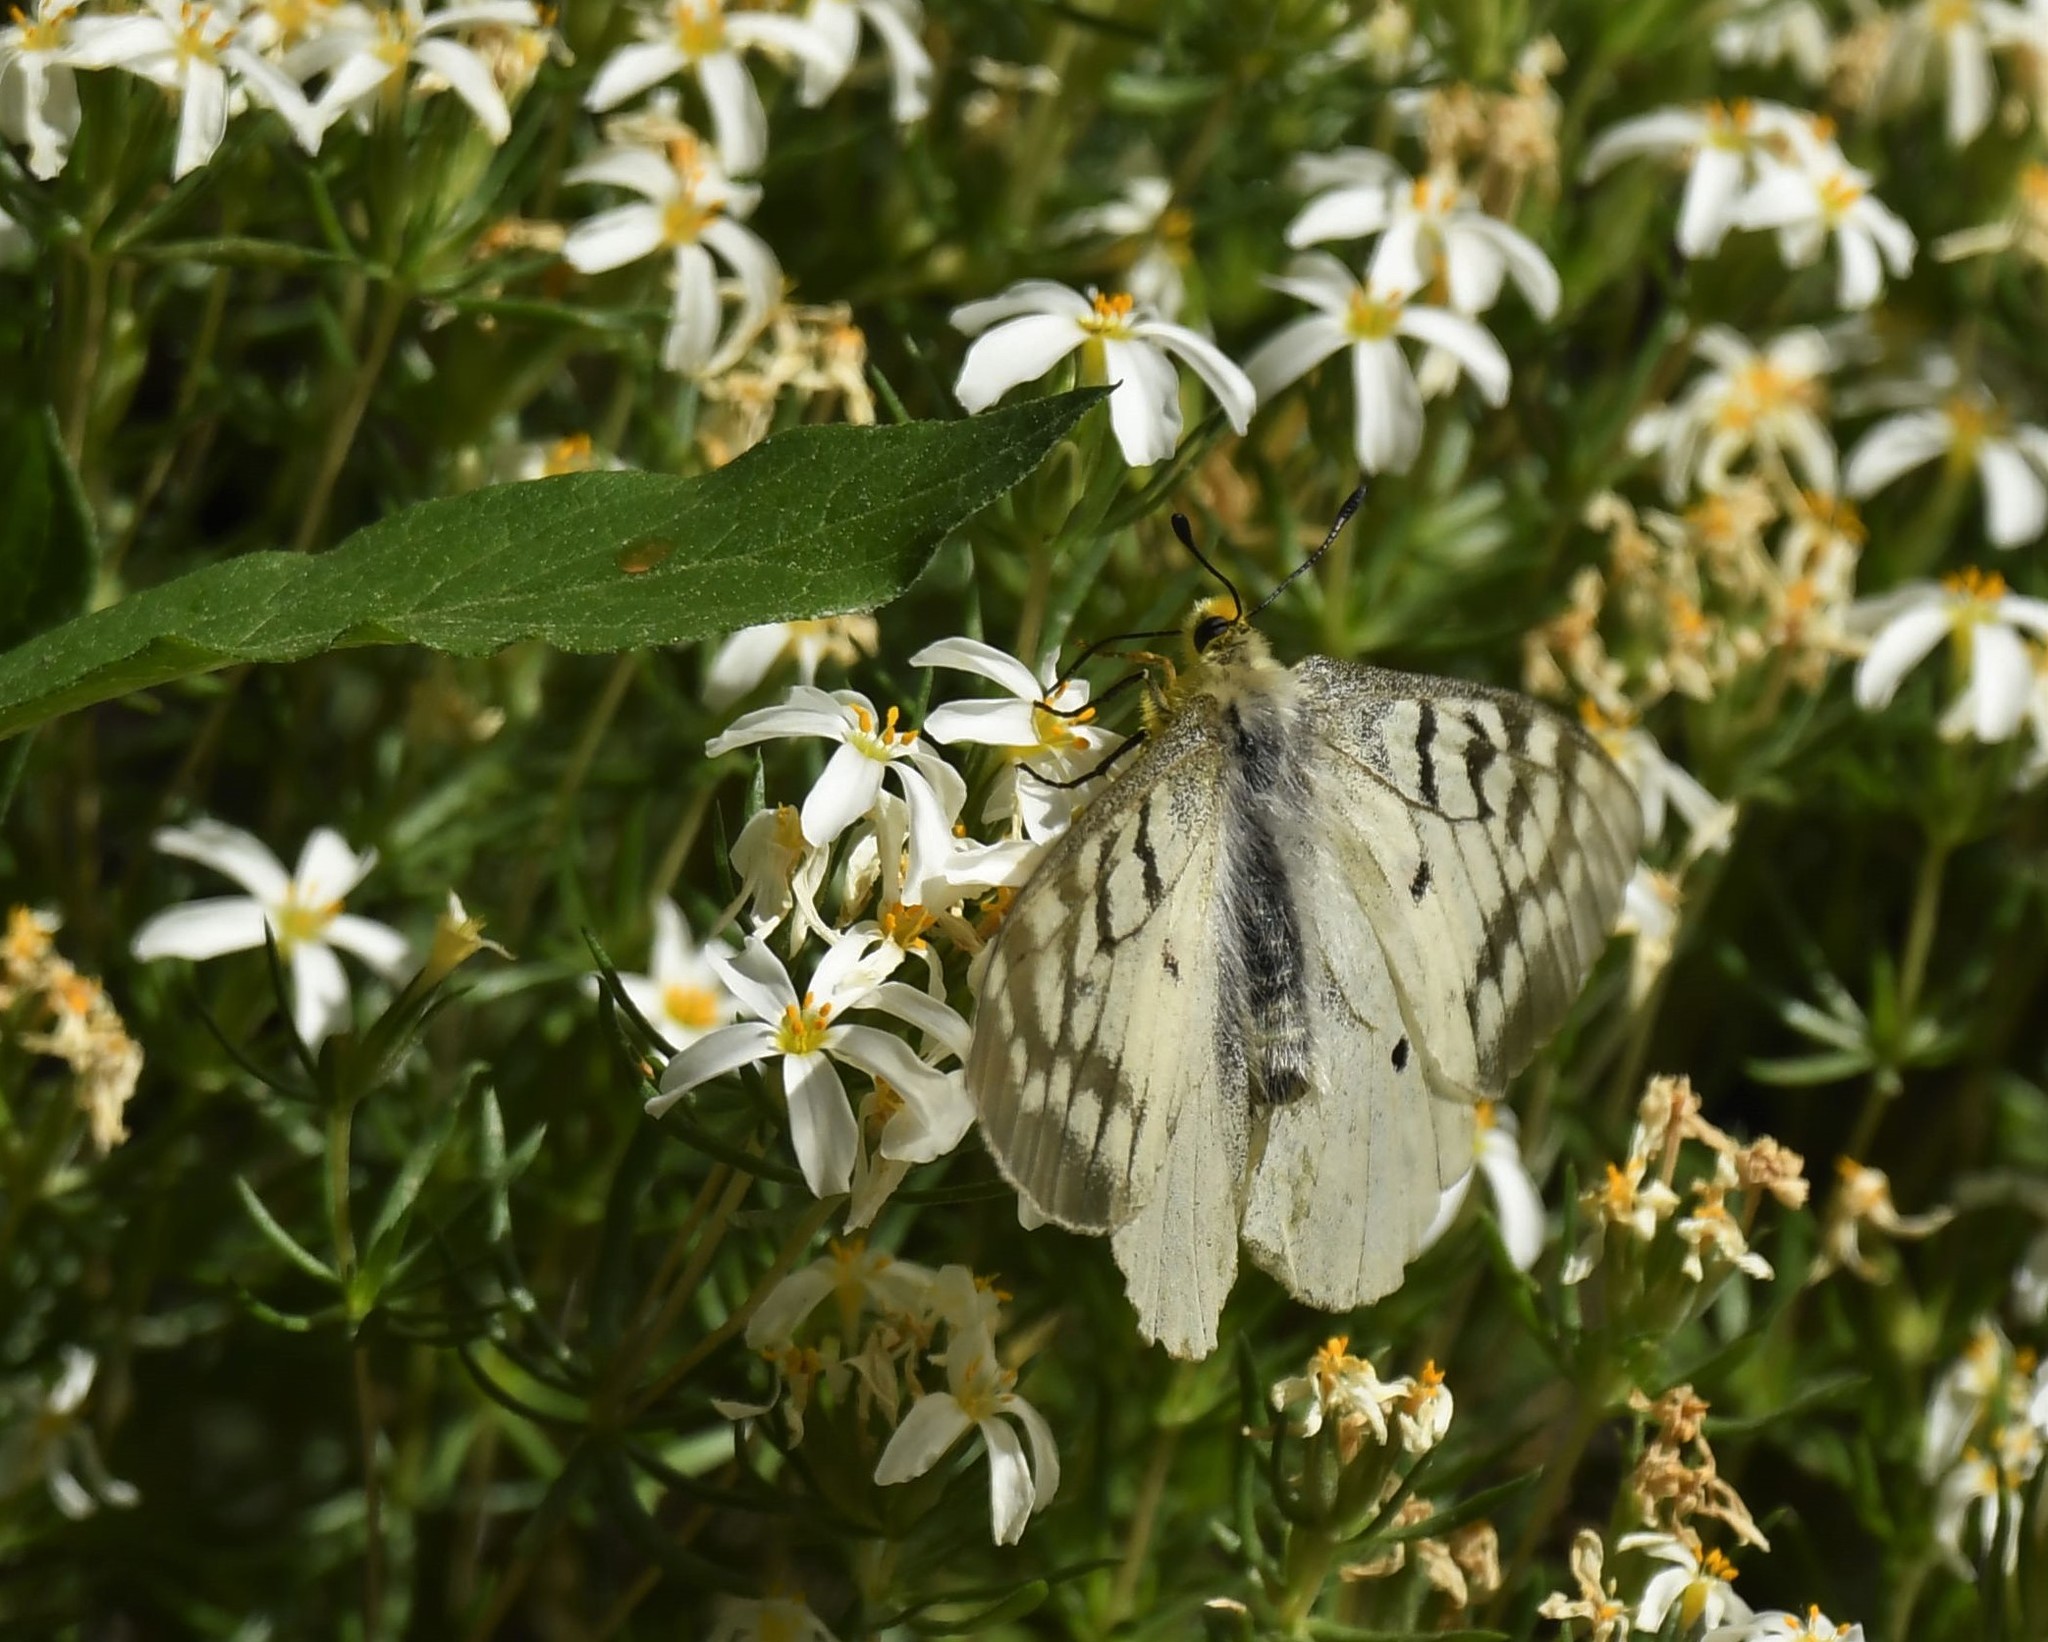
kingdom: Animalia
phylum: Arthropoda
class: Insecta
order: Lepidoptera
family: Papilionidae
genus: Parnassius
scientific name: Parnassius clodius
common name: American apollo
